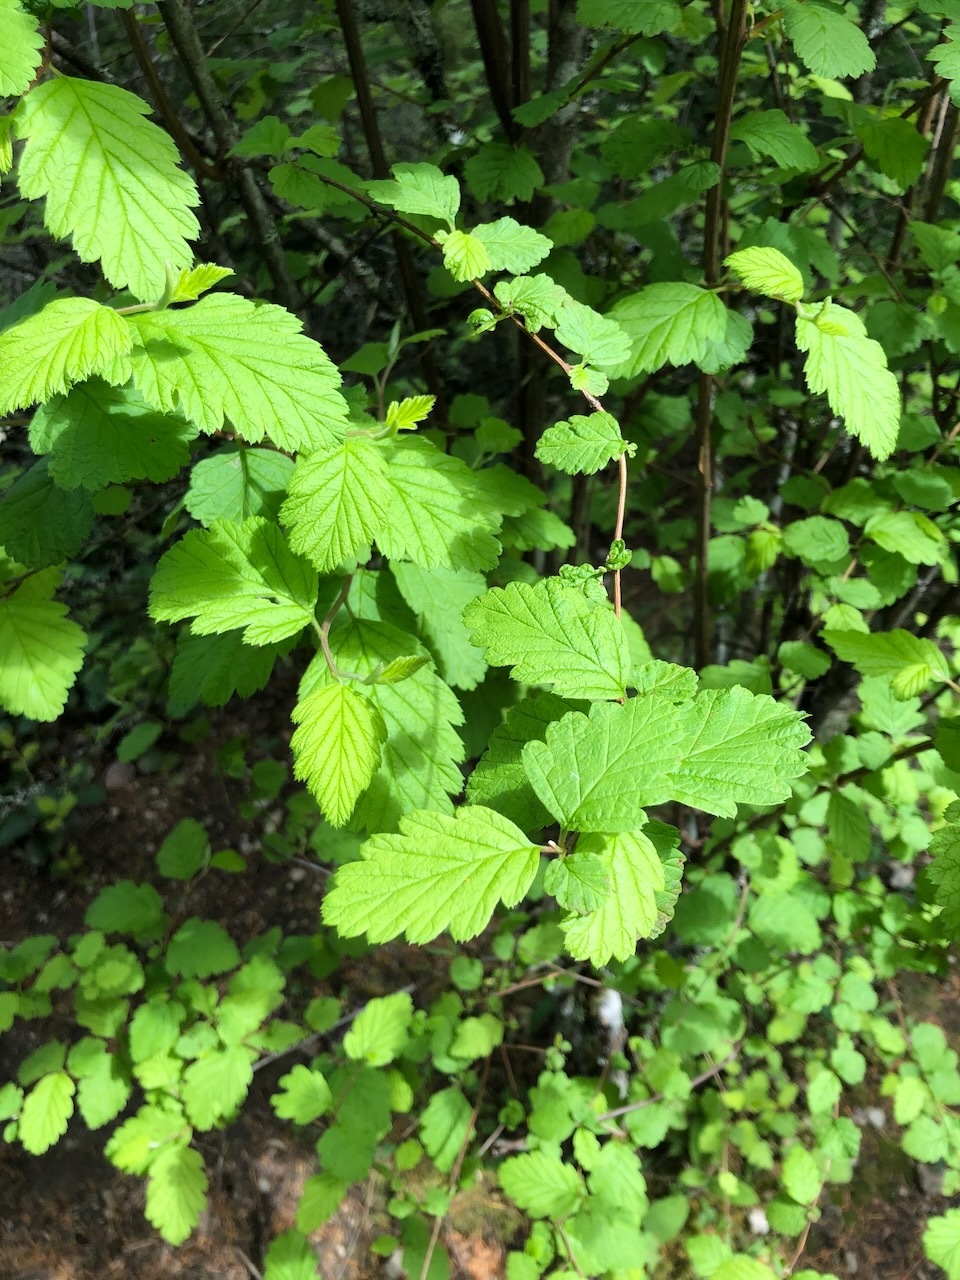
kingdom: Plantae
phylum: Tracheophyta
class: Magnoliopsida
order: Rosales
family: Rosaceae
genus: Holodiscus
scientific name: Holodiscus discolor
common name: Oceanspray
